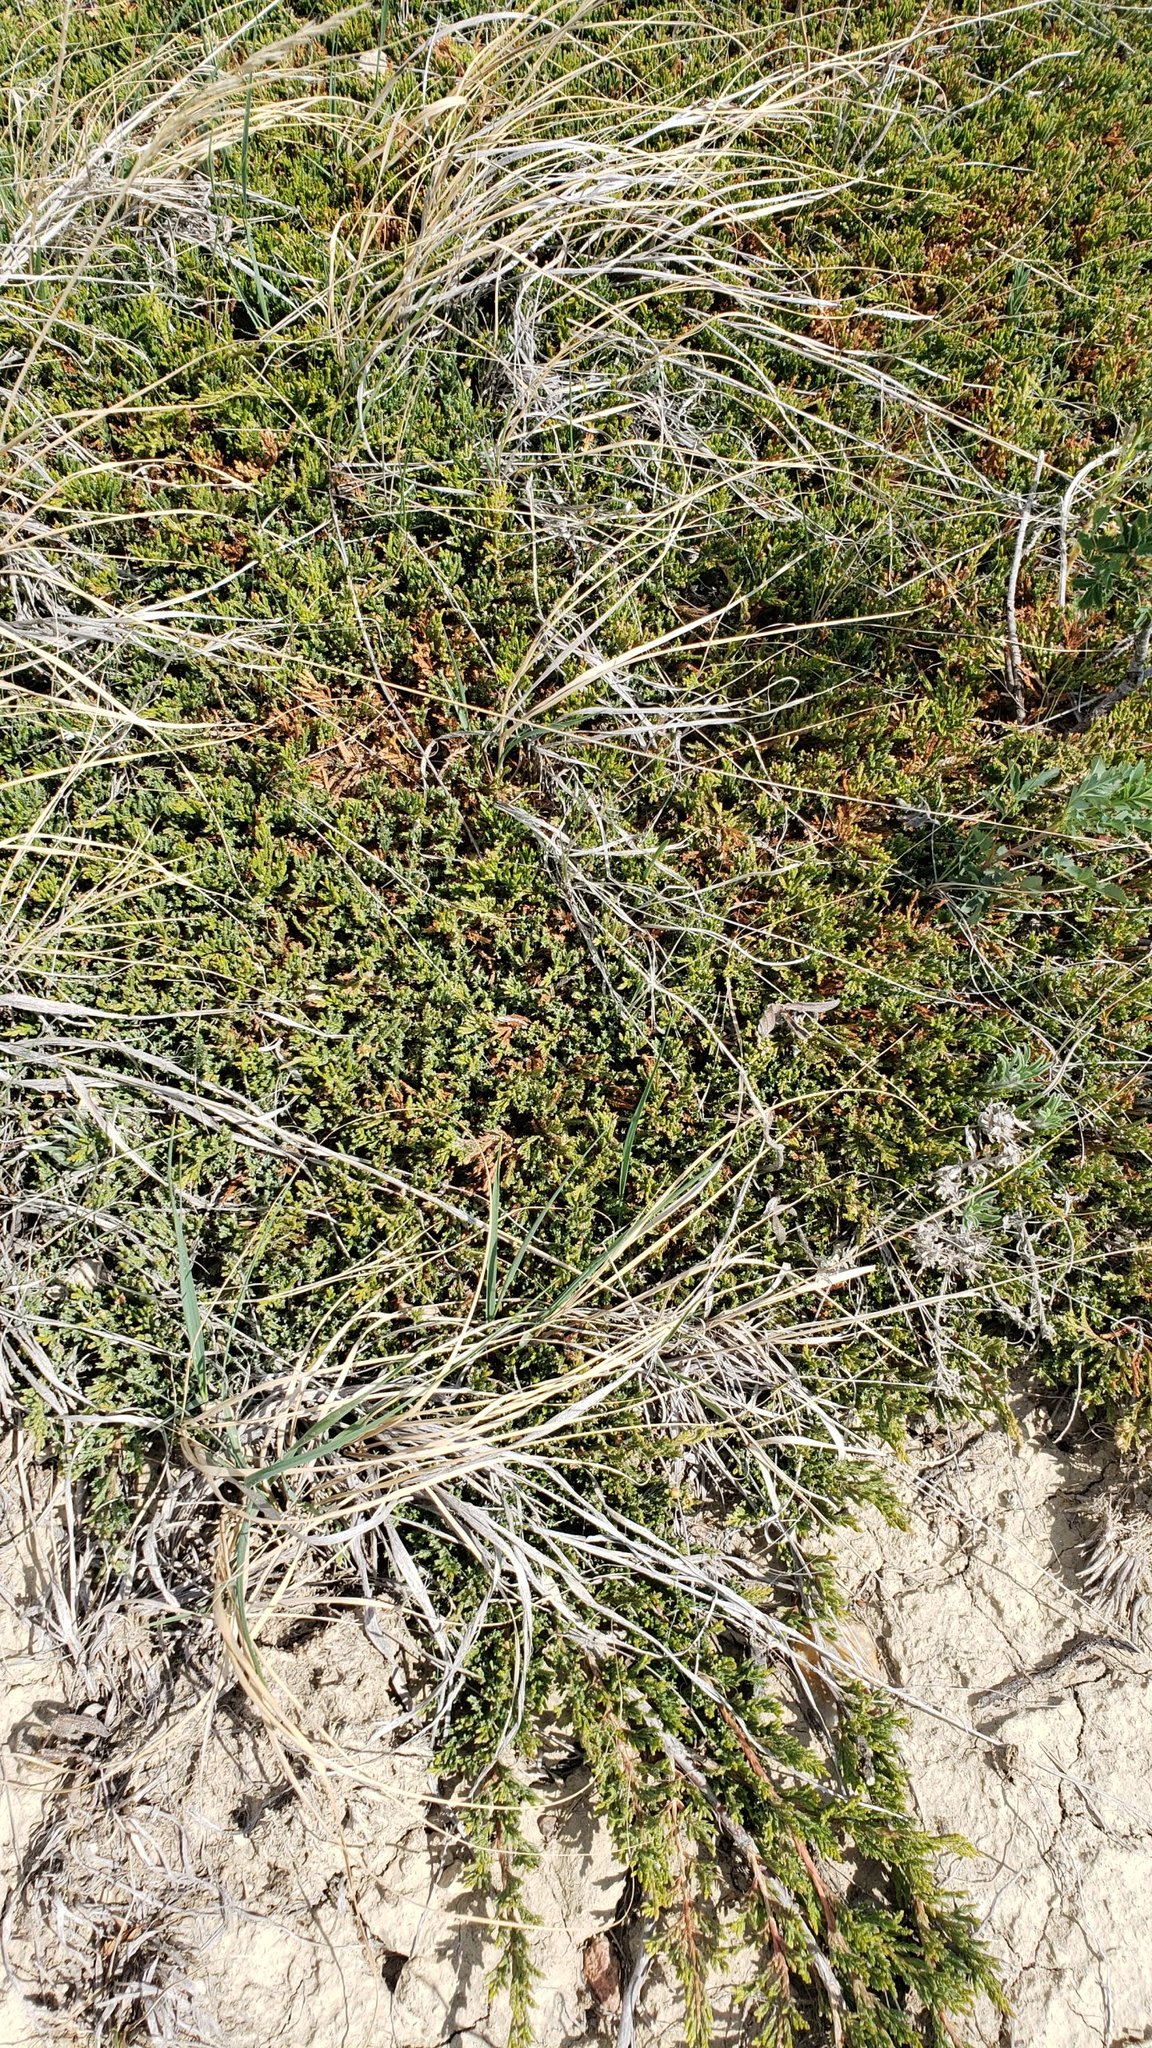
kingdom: Plantae
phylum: Tracheophyta
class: Pinopsida
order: Pinales
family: Cupressaceae
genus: Juniperus
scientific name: Juniperus horizontalis
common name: Creeping juniper
